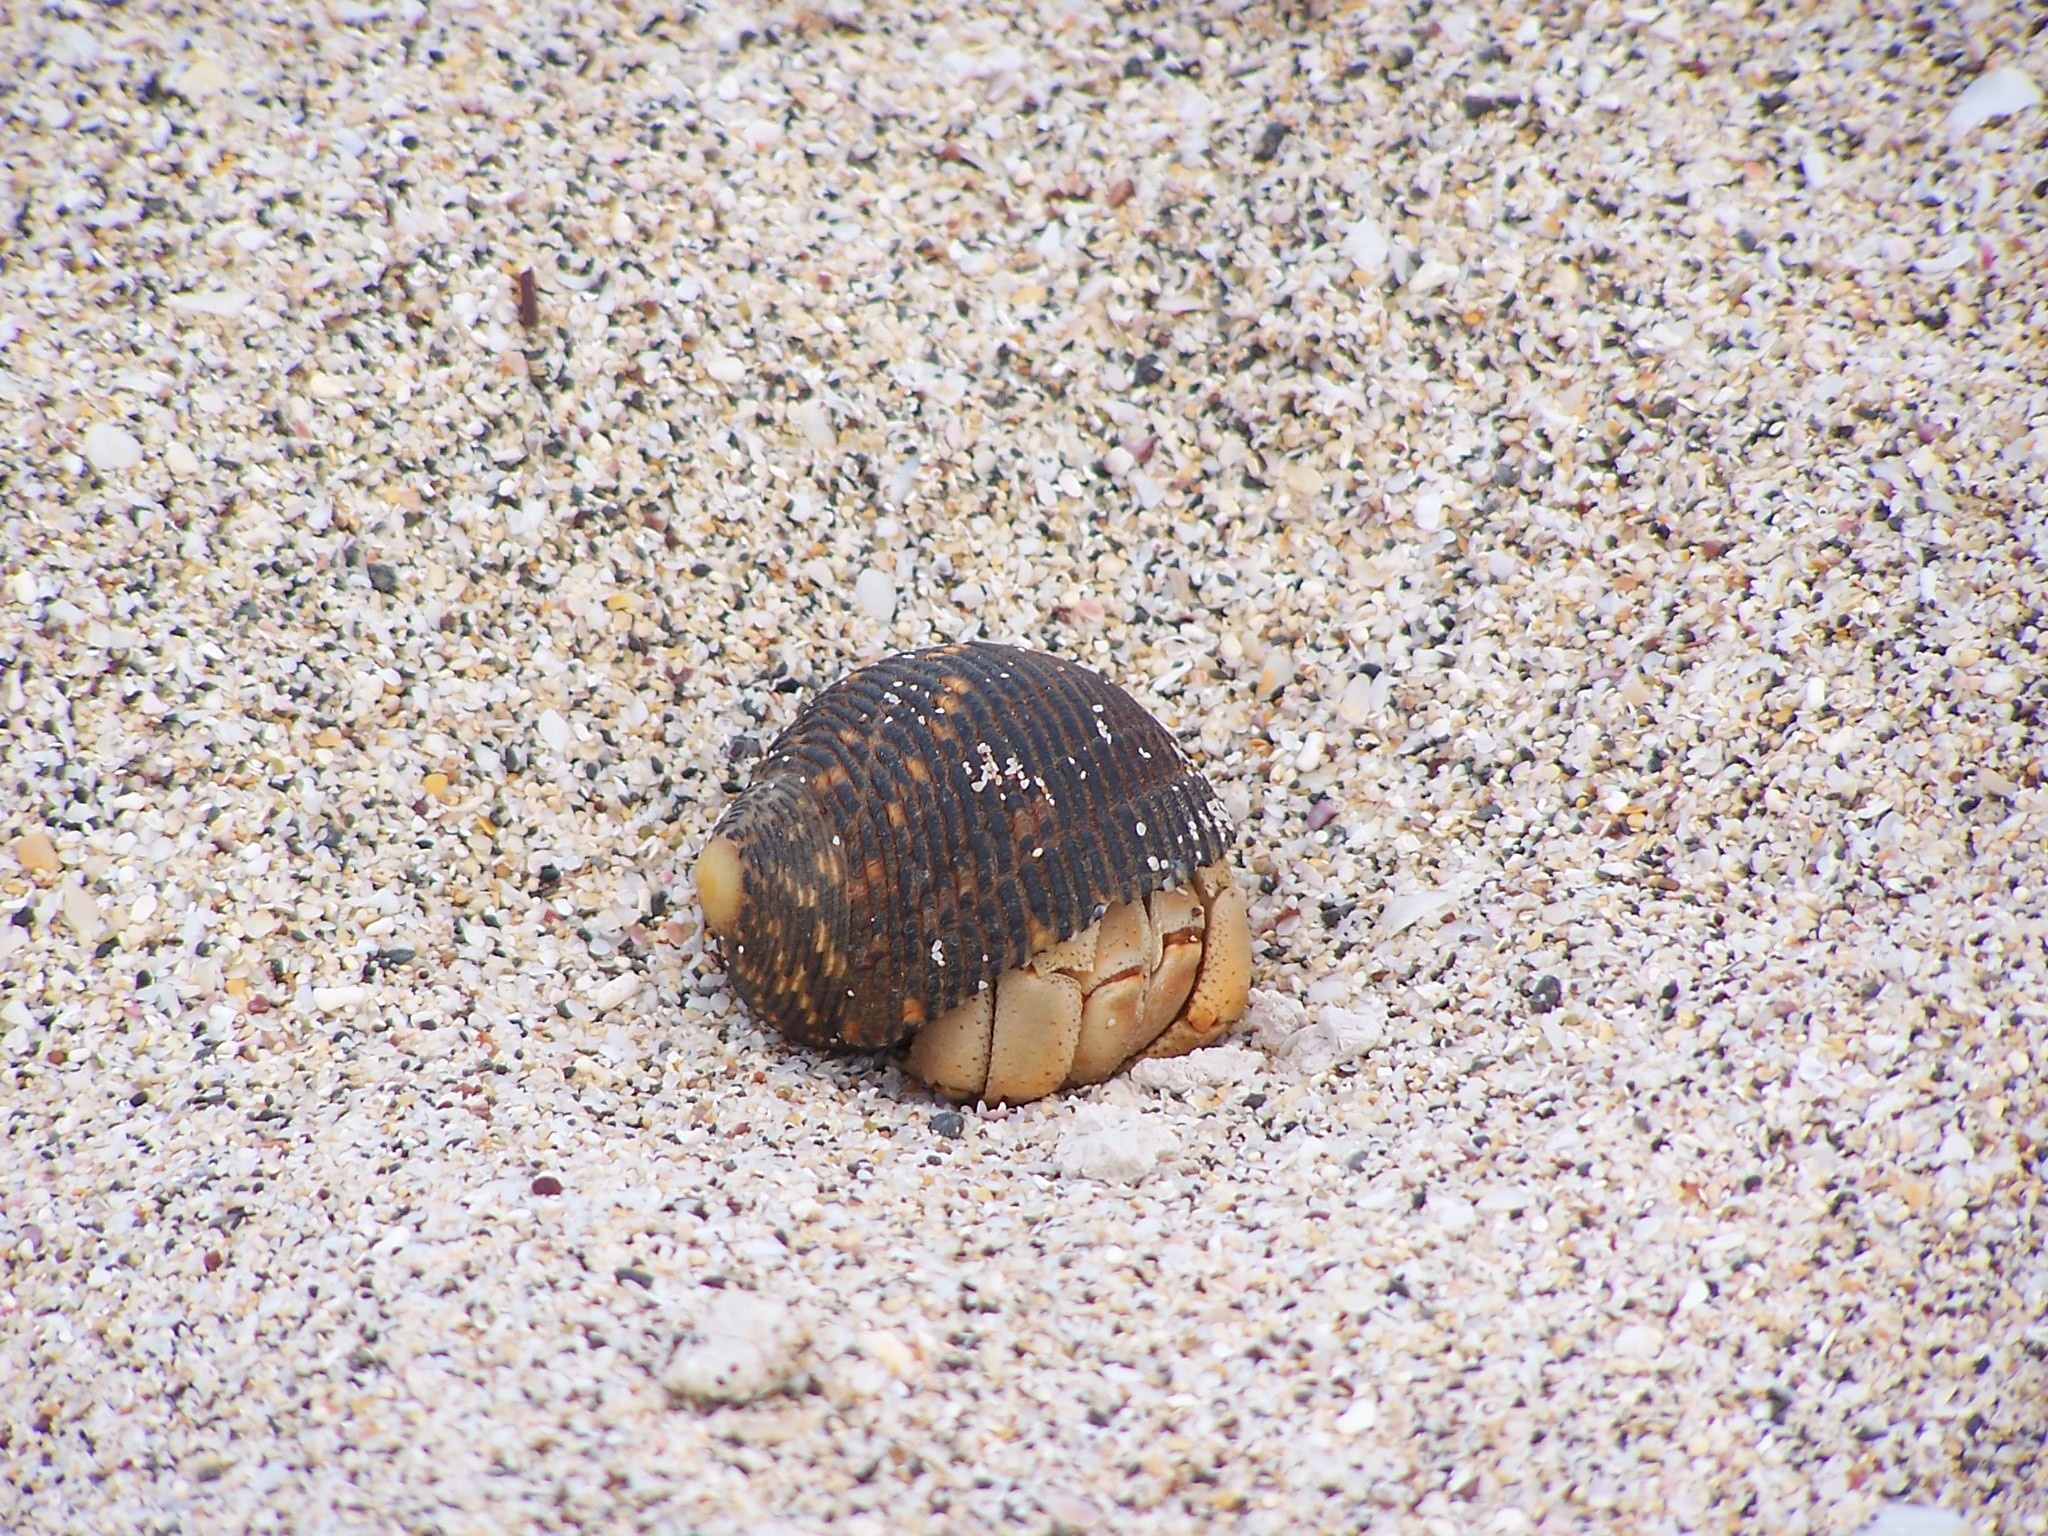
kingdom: Animalia
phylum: Arthropoda
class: Malacostraca
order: Decapoda
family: Coenobitidae
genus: Coenobita
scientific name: Coenobita compressus
